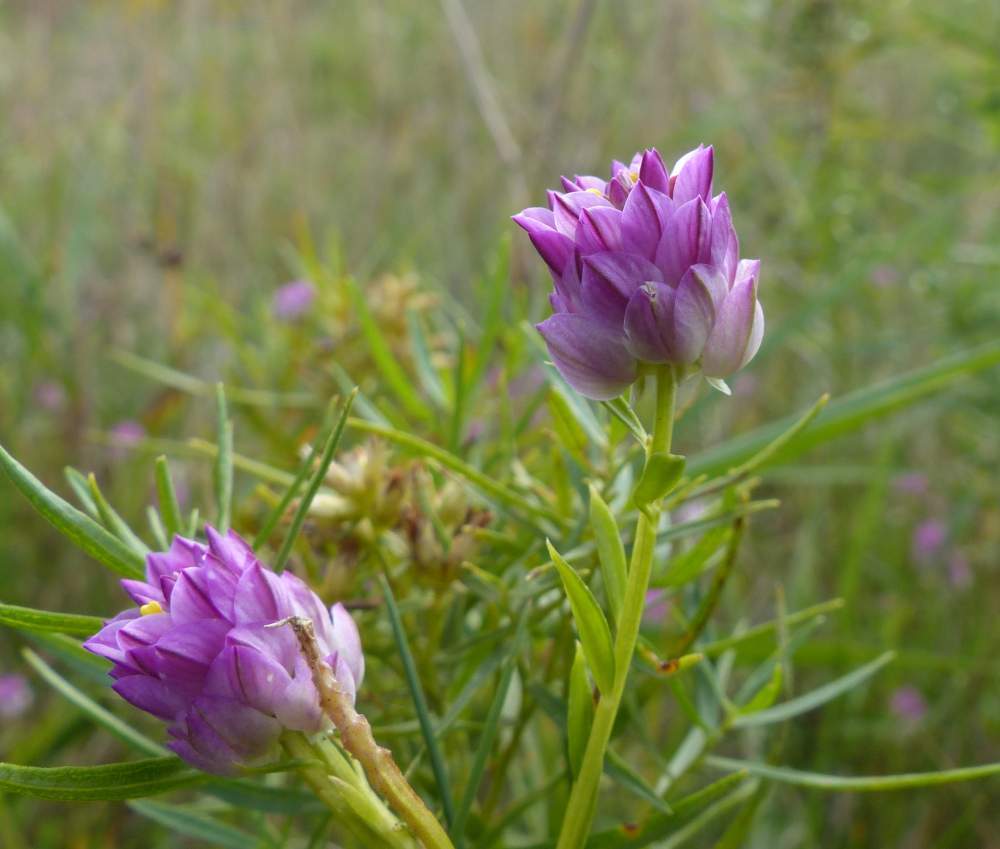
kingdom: Plantae
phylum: Tracheophyta
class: Magnoliopsida
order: Fabales
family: Polygalaceae
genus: Polygala
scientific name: Polygala sanguinea
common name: Blood milkwort
